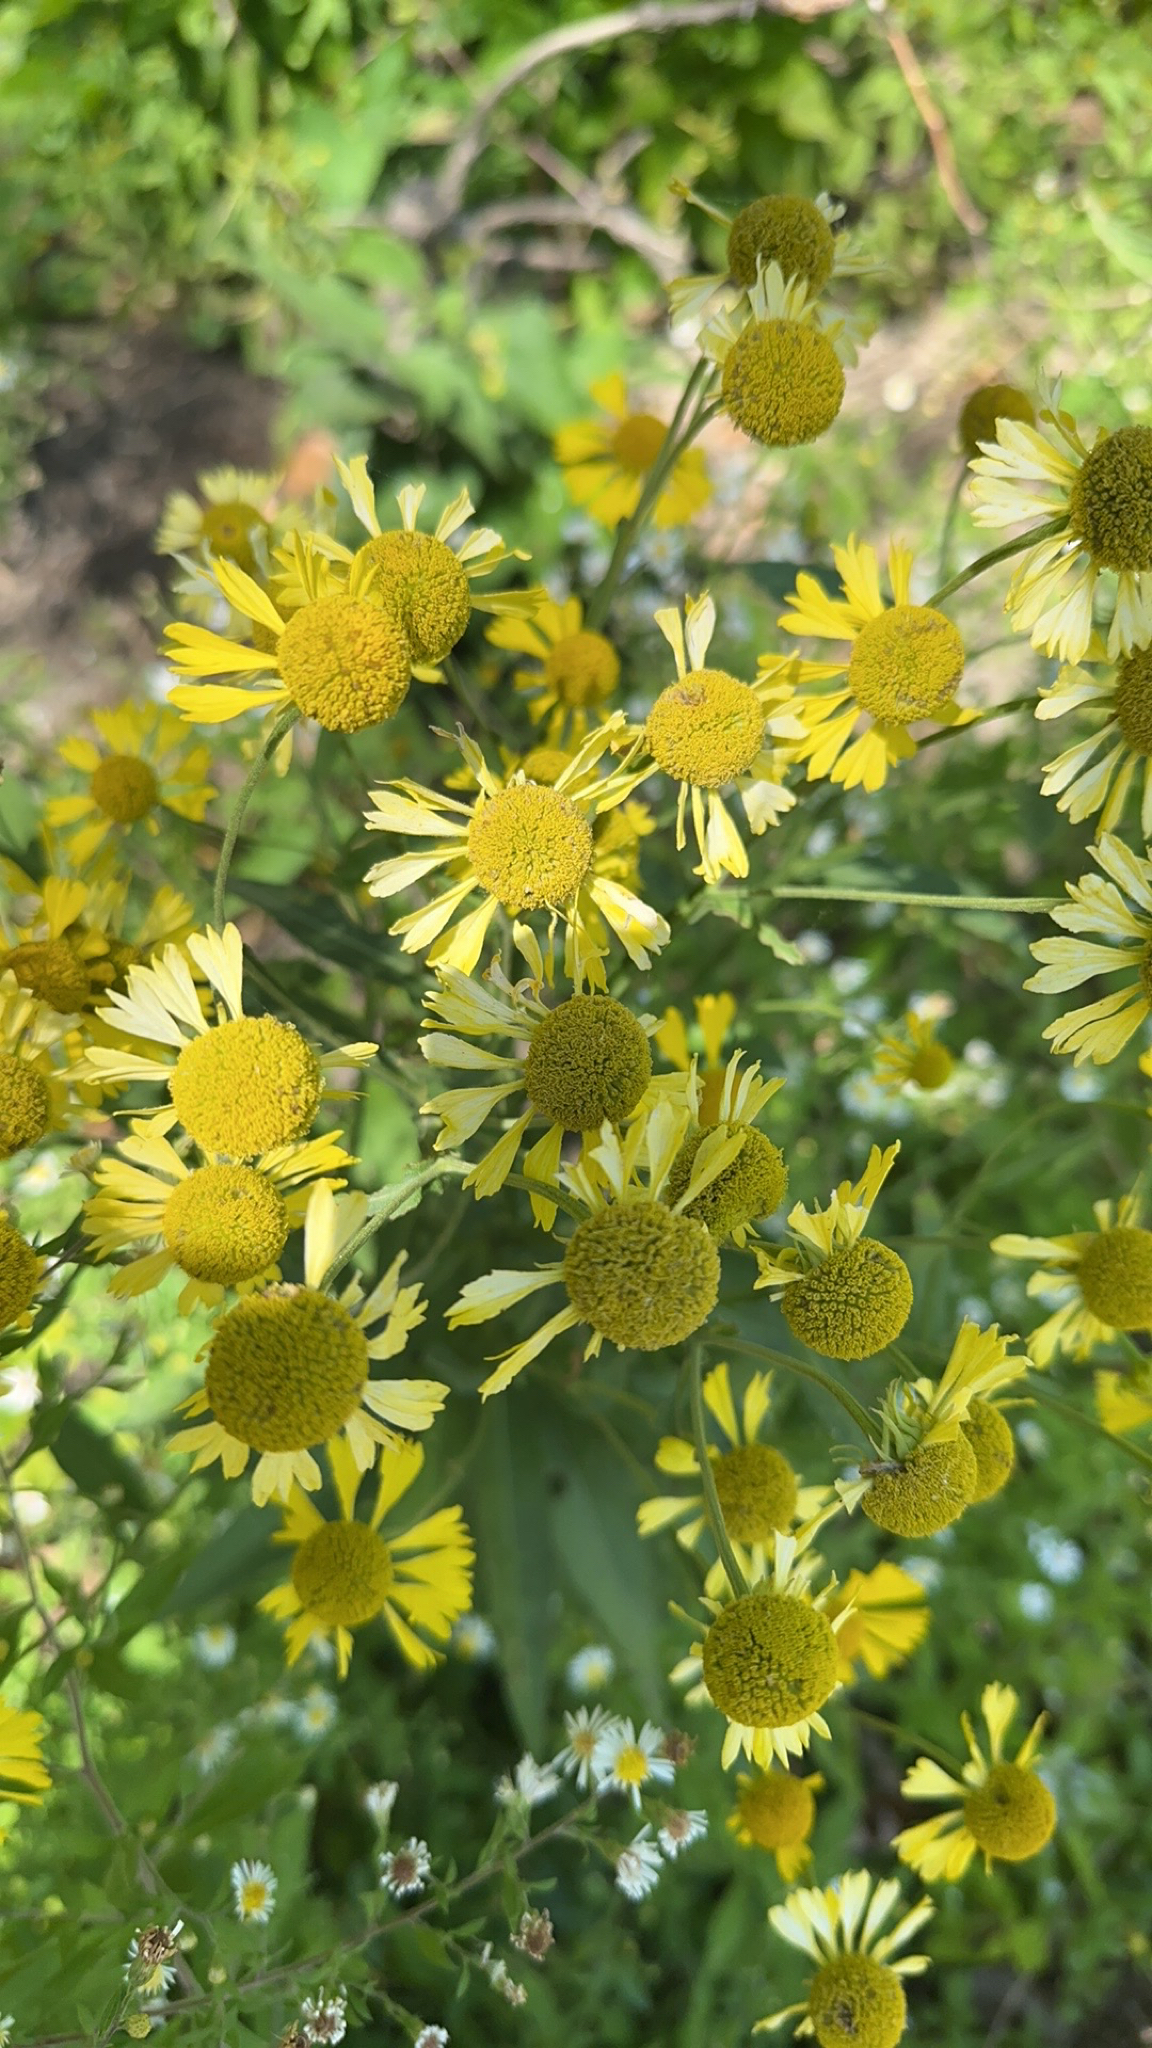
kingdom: Plantae
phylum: Tracheophyta
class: Magnoliopsida
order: Asterales
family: Asteraceae
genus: Helenium
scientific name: Helenium autumnale
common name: Sneezeweed
